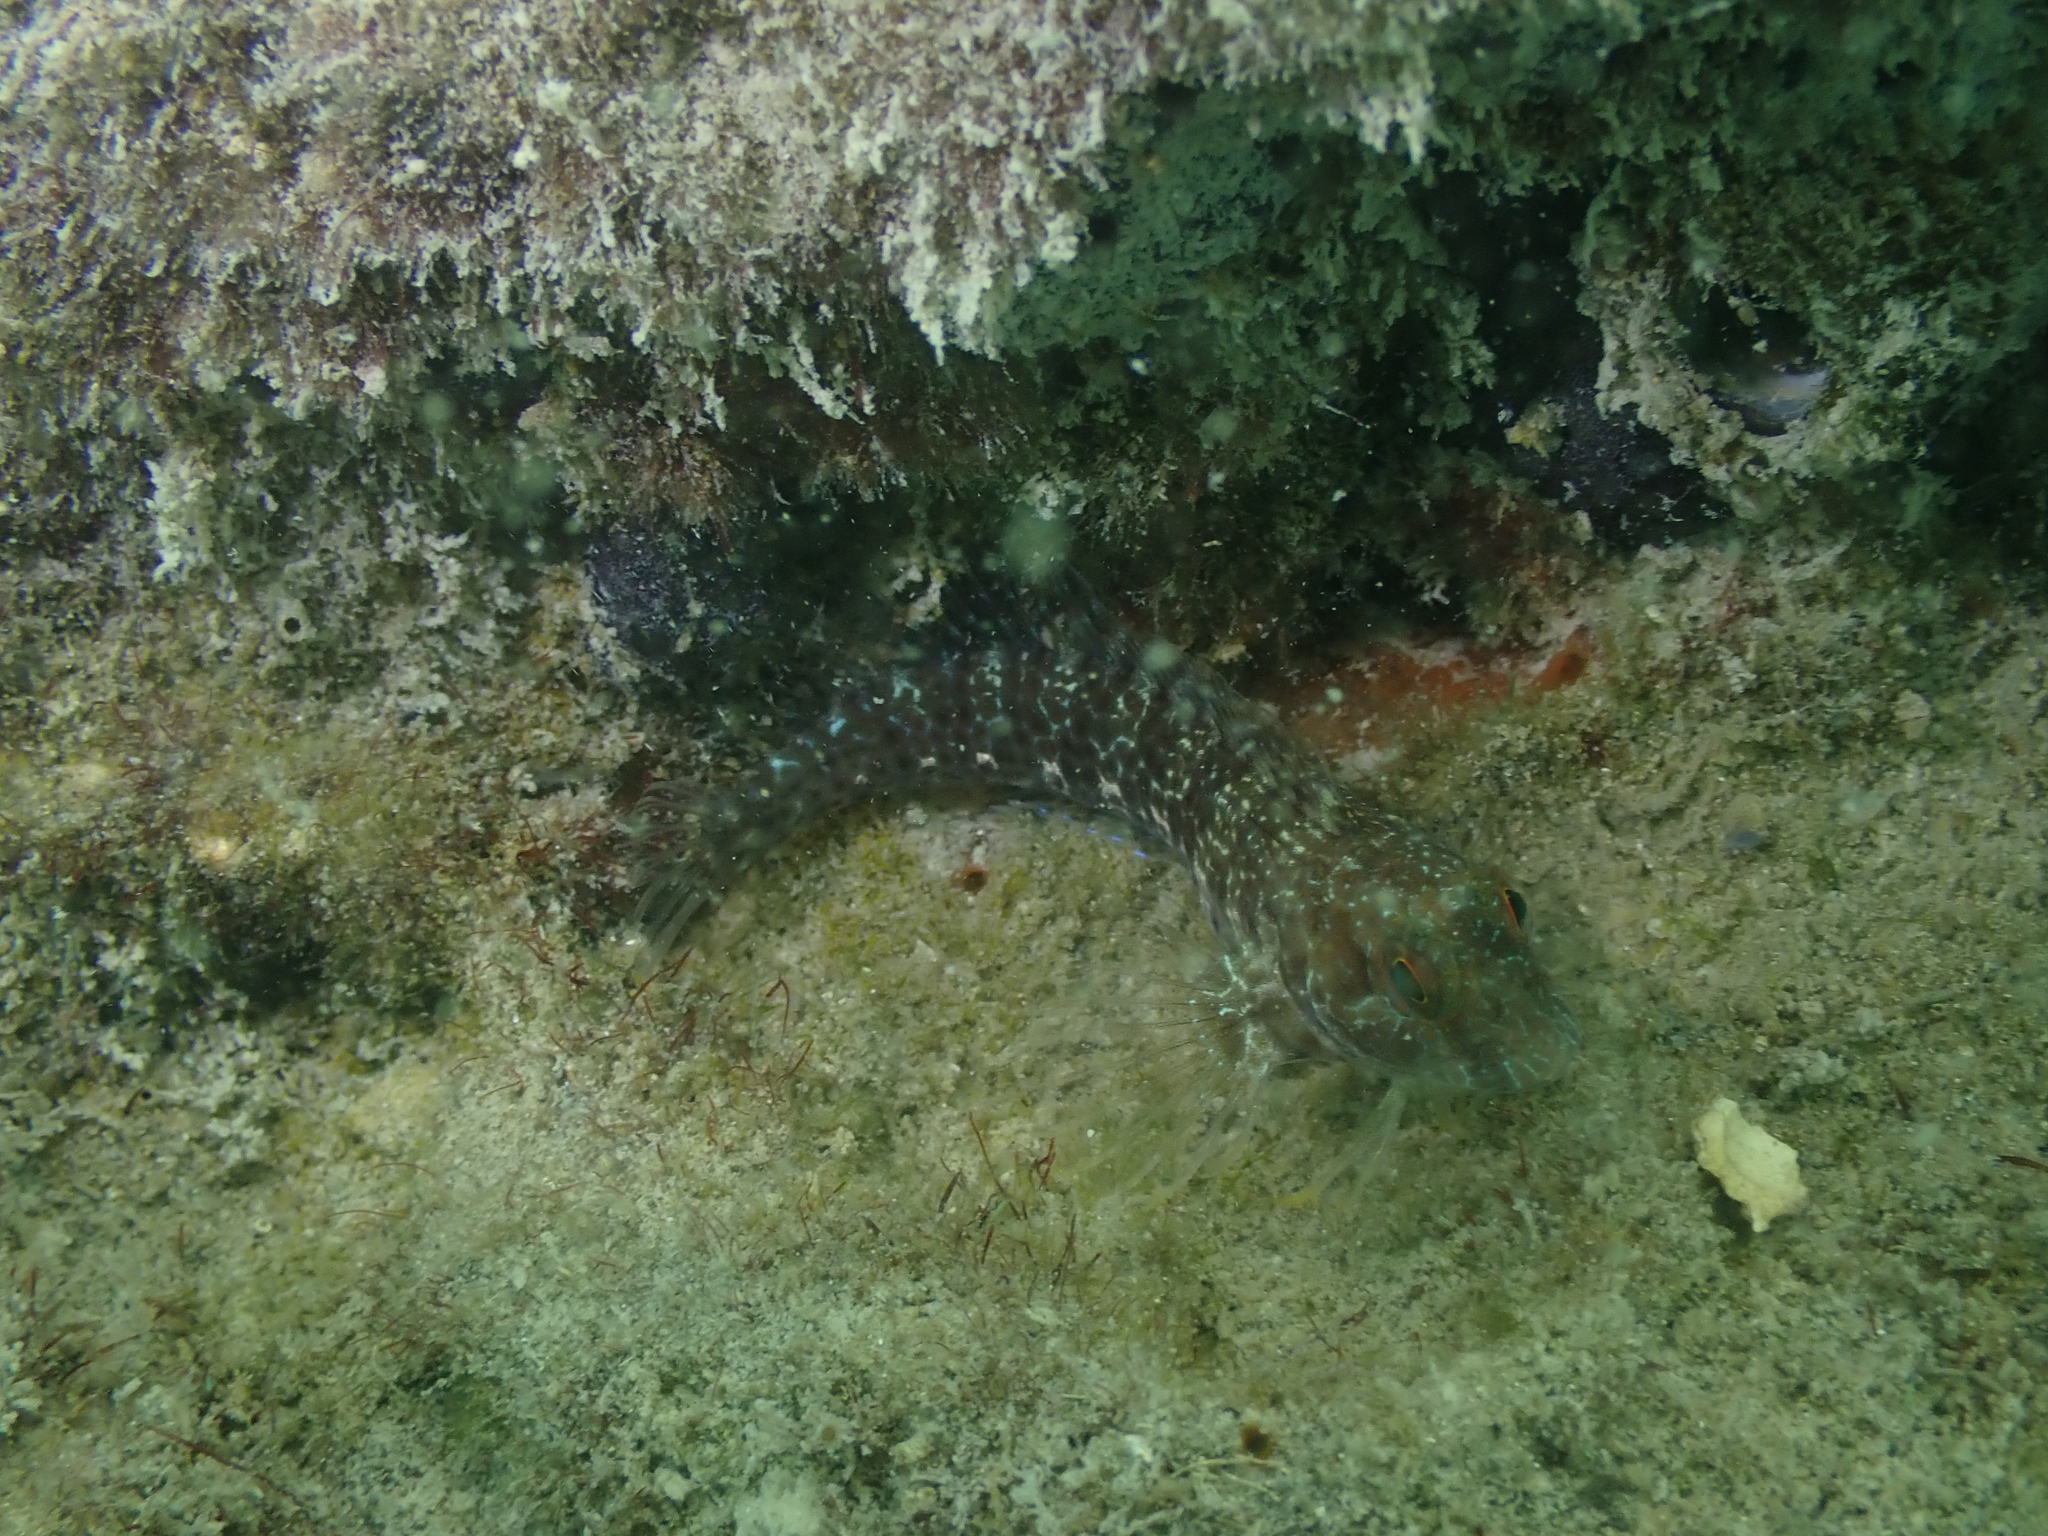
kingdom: Animalia
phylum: Chordata
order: Perciformes
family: Blenniidae
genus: Parablennius
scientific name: Parablennius marmoreus
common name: Seaweed blenny
